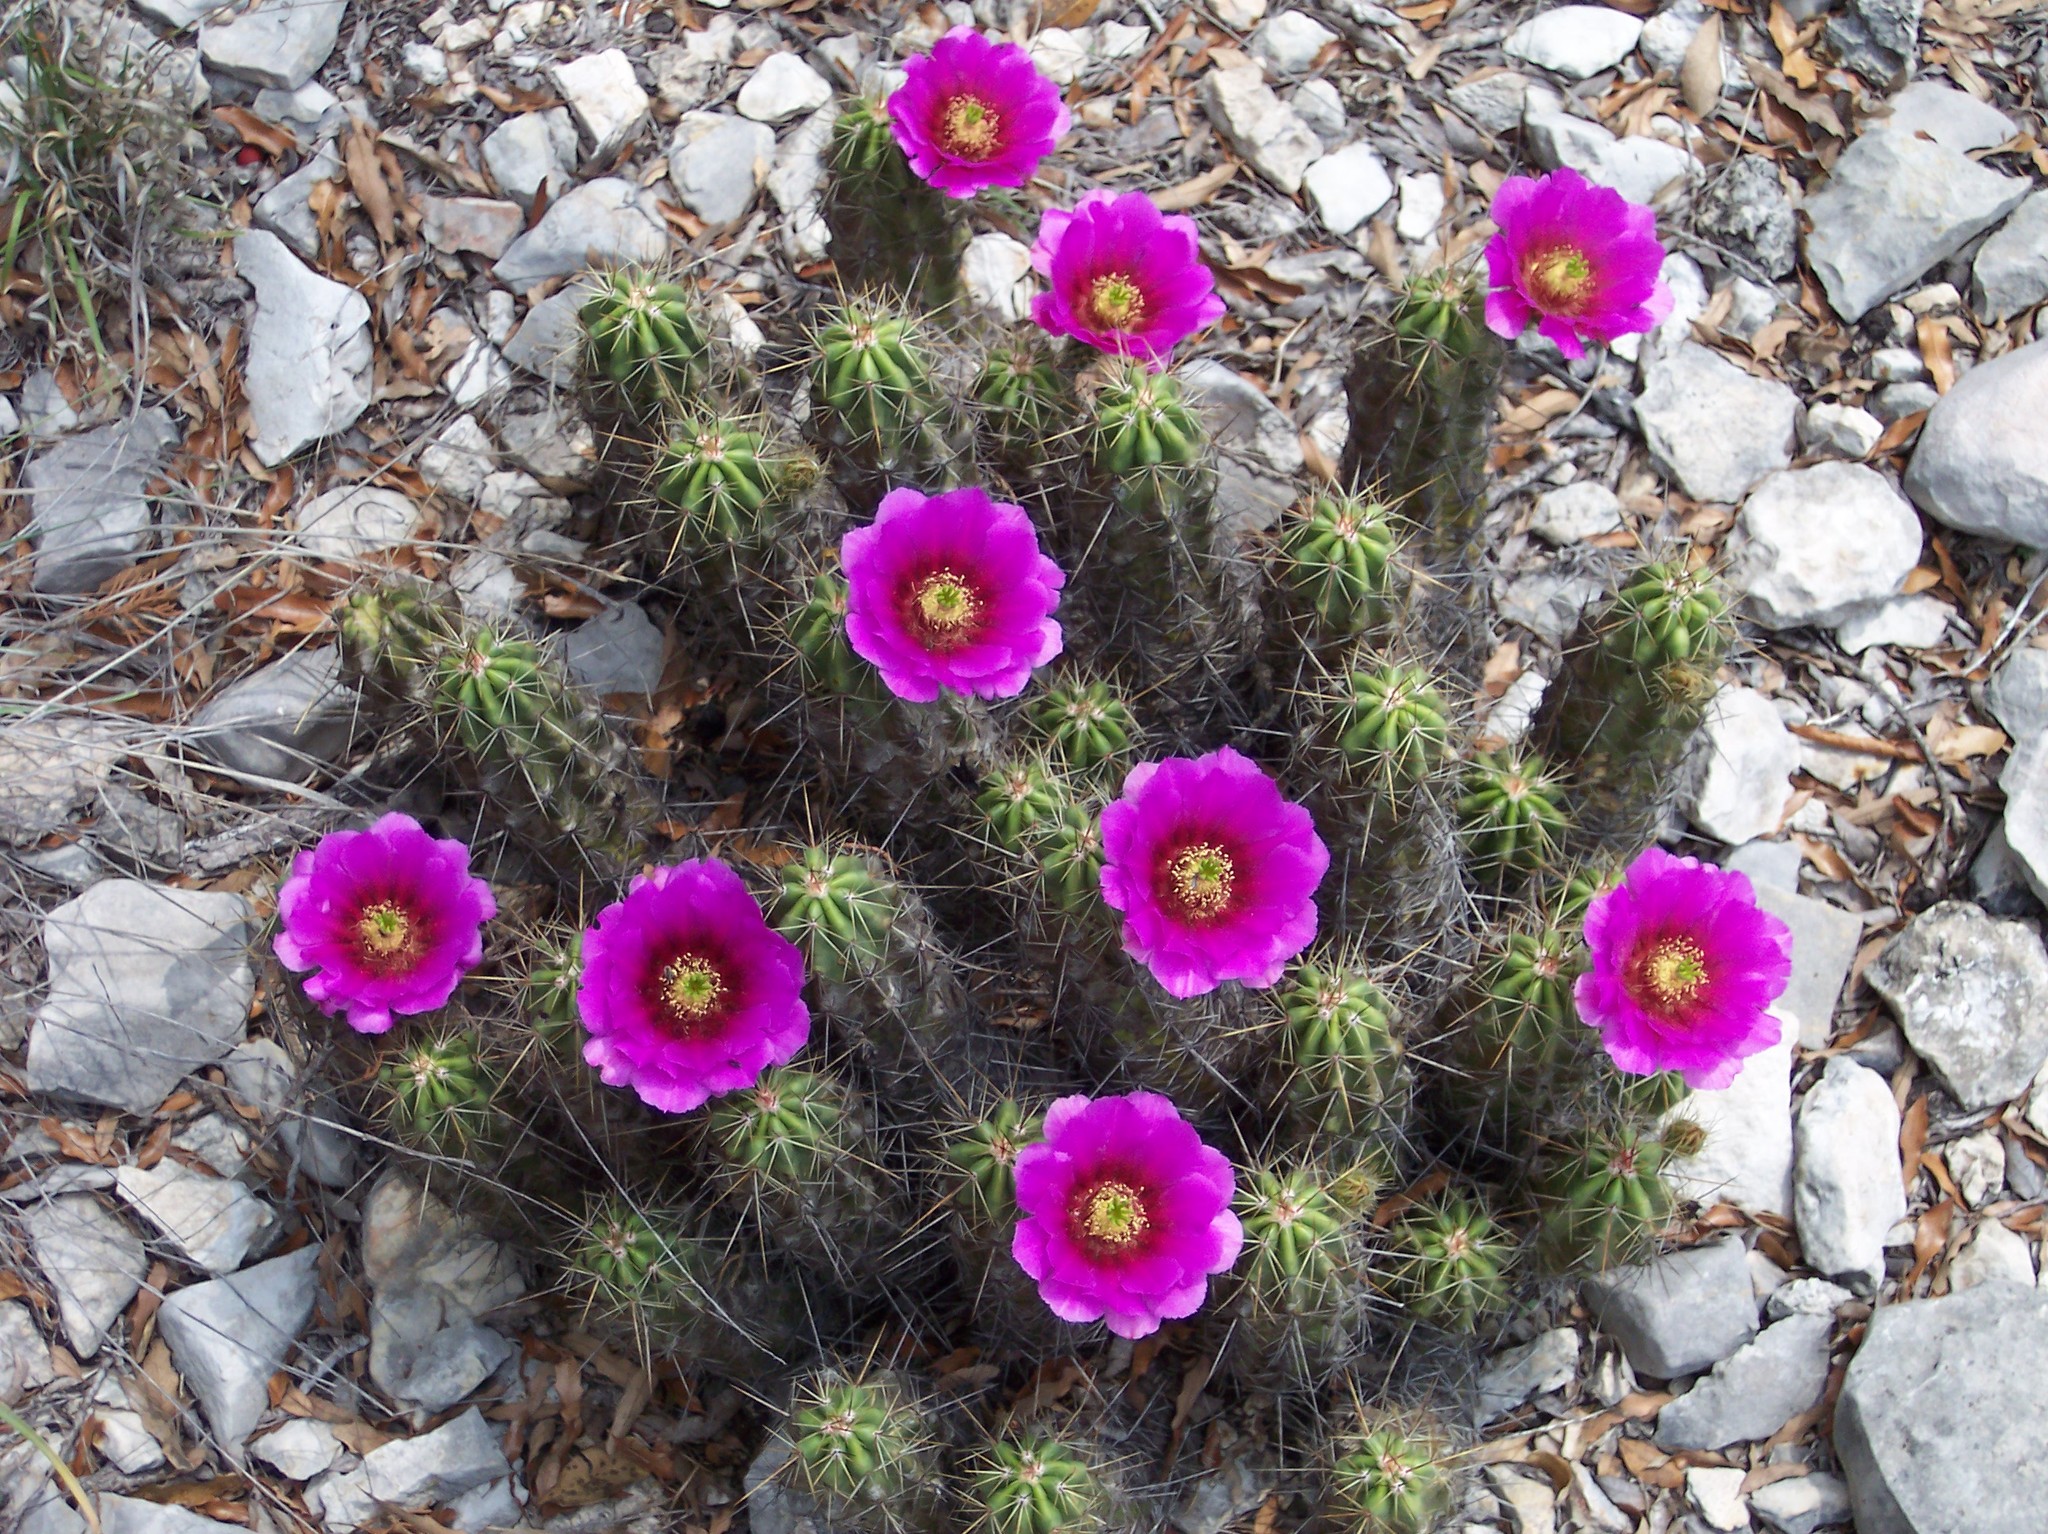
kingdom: Plantae
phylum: Tracheophyta
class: Magnoliopsida
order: Caryophyllales
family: Cactaceae
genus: Echinocereus
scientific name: Echinocereus enneacanthus
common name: Pitaya
